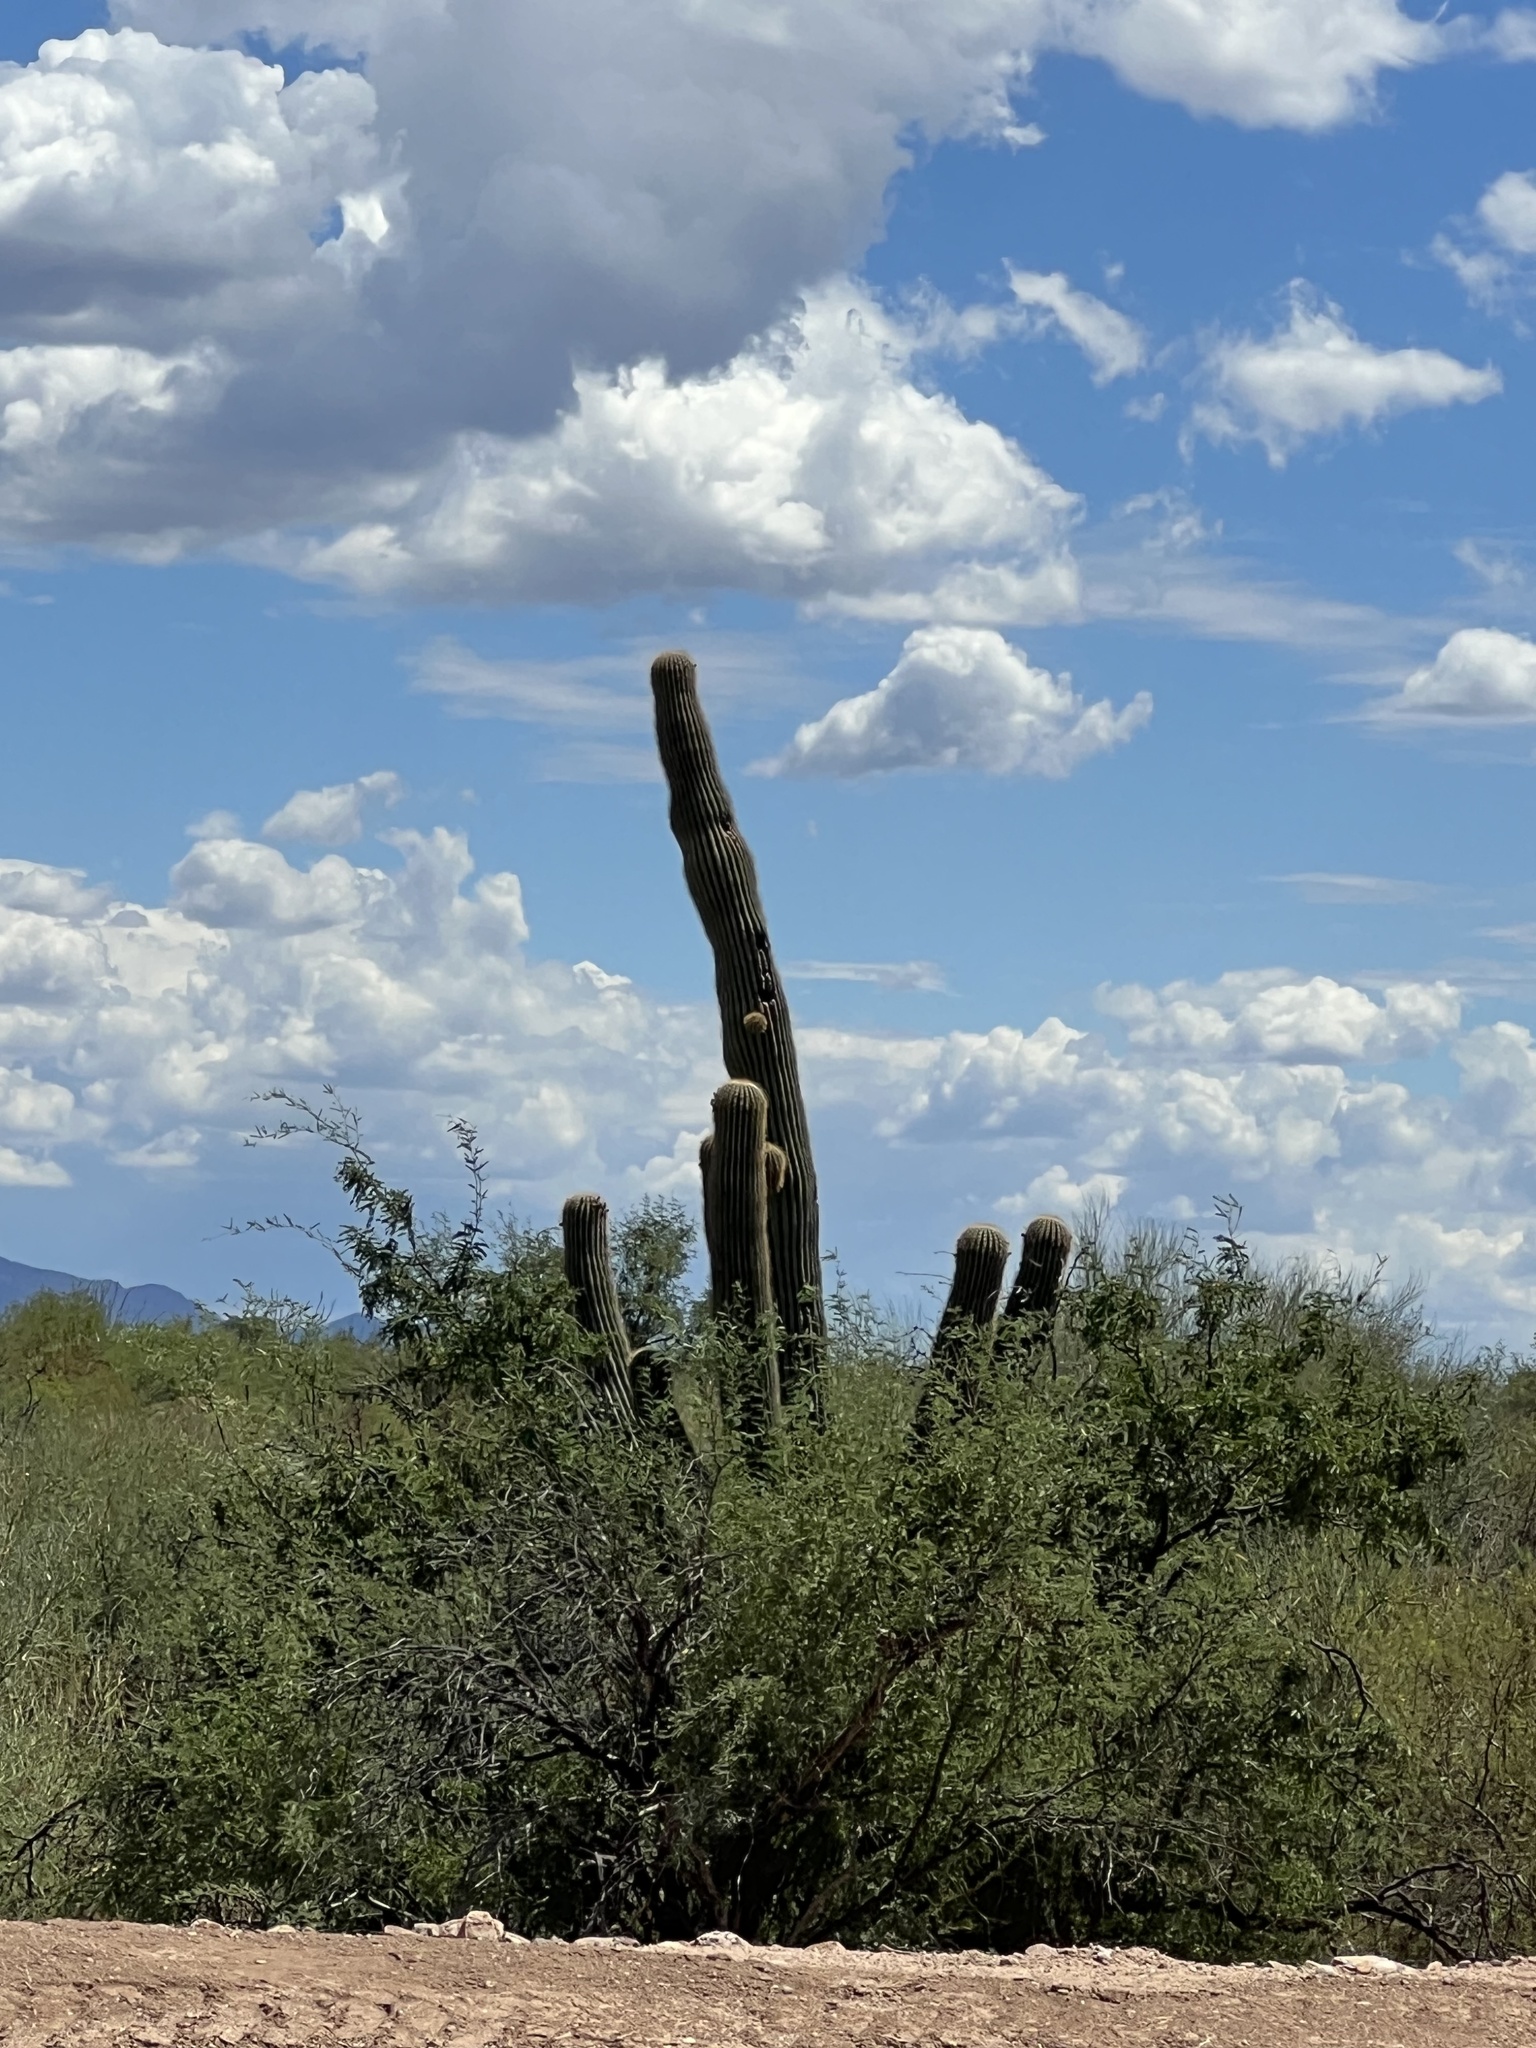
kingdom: Plantae
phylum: Tracheophyta
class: Magnoliopsida
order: Caryophyllales
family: Cactaceae
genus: Carnegiea
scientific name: Carnegiea gigantea
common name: Saguaro
